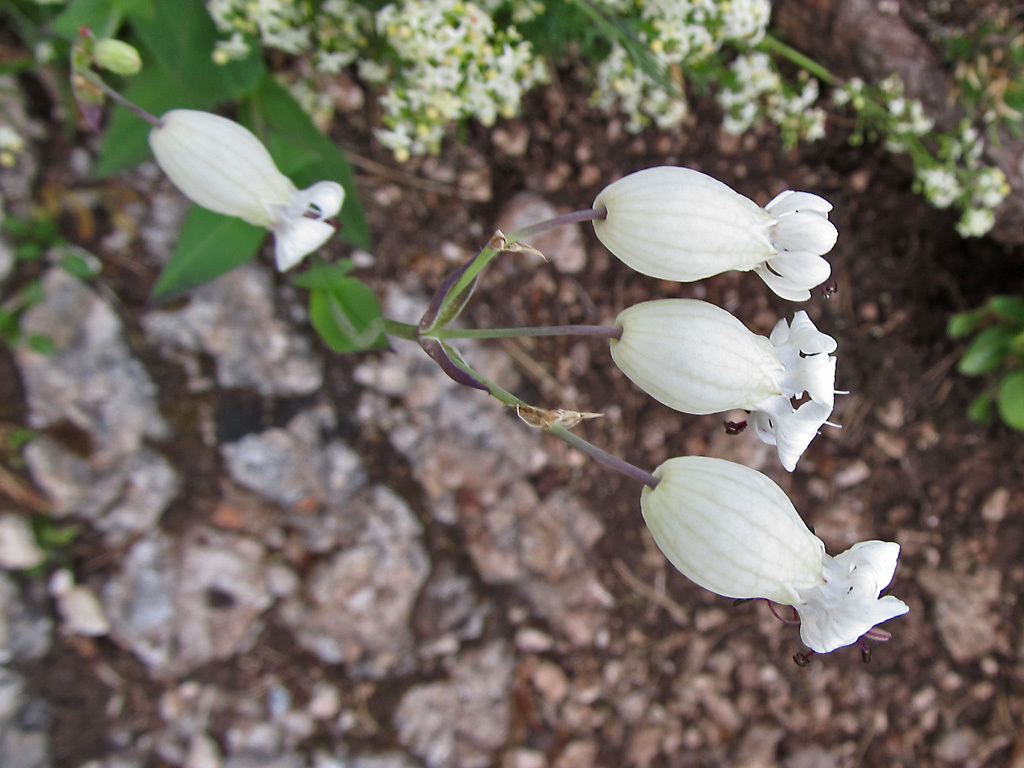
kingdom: Plantae
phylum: Tracheophyta
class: Magnoliopsida
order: Caryophyllales
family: Caryophyllaceae
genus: Silene
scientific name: Silene vulgaris
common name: Bladder campion
